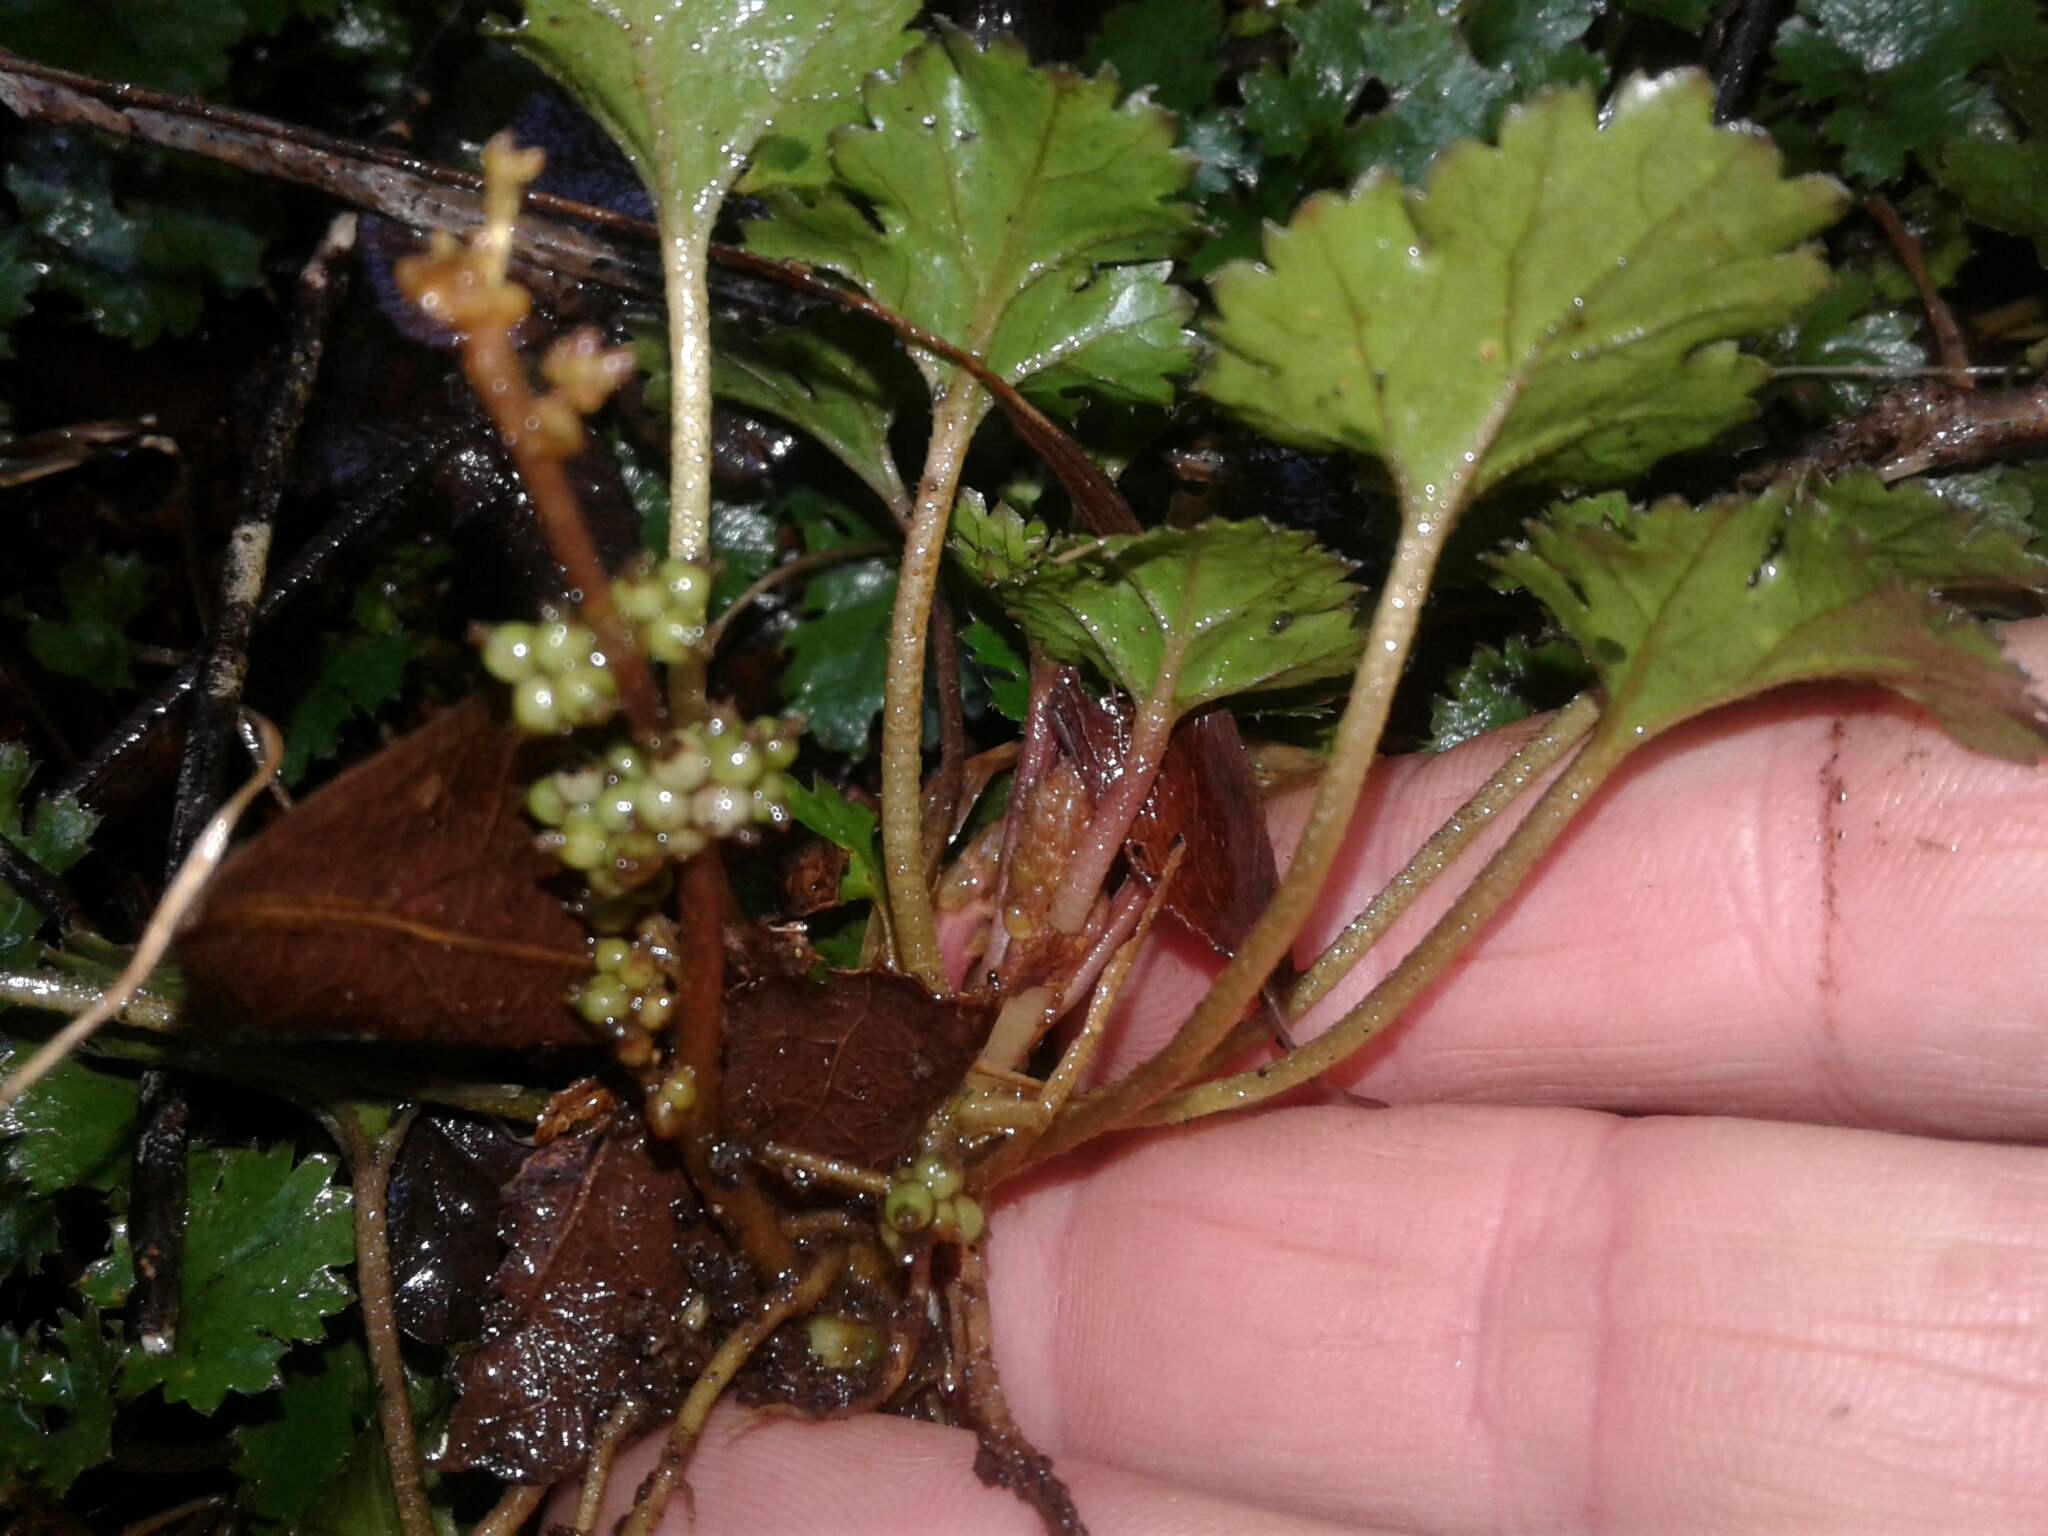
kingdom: Plantae
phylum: Tracheophyta
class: Magnoliopsida
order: Gunnerales
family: Gunneraceae
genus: Gunnera
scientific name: Gunnera monoica
